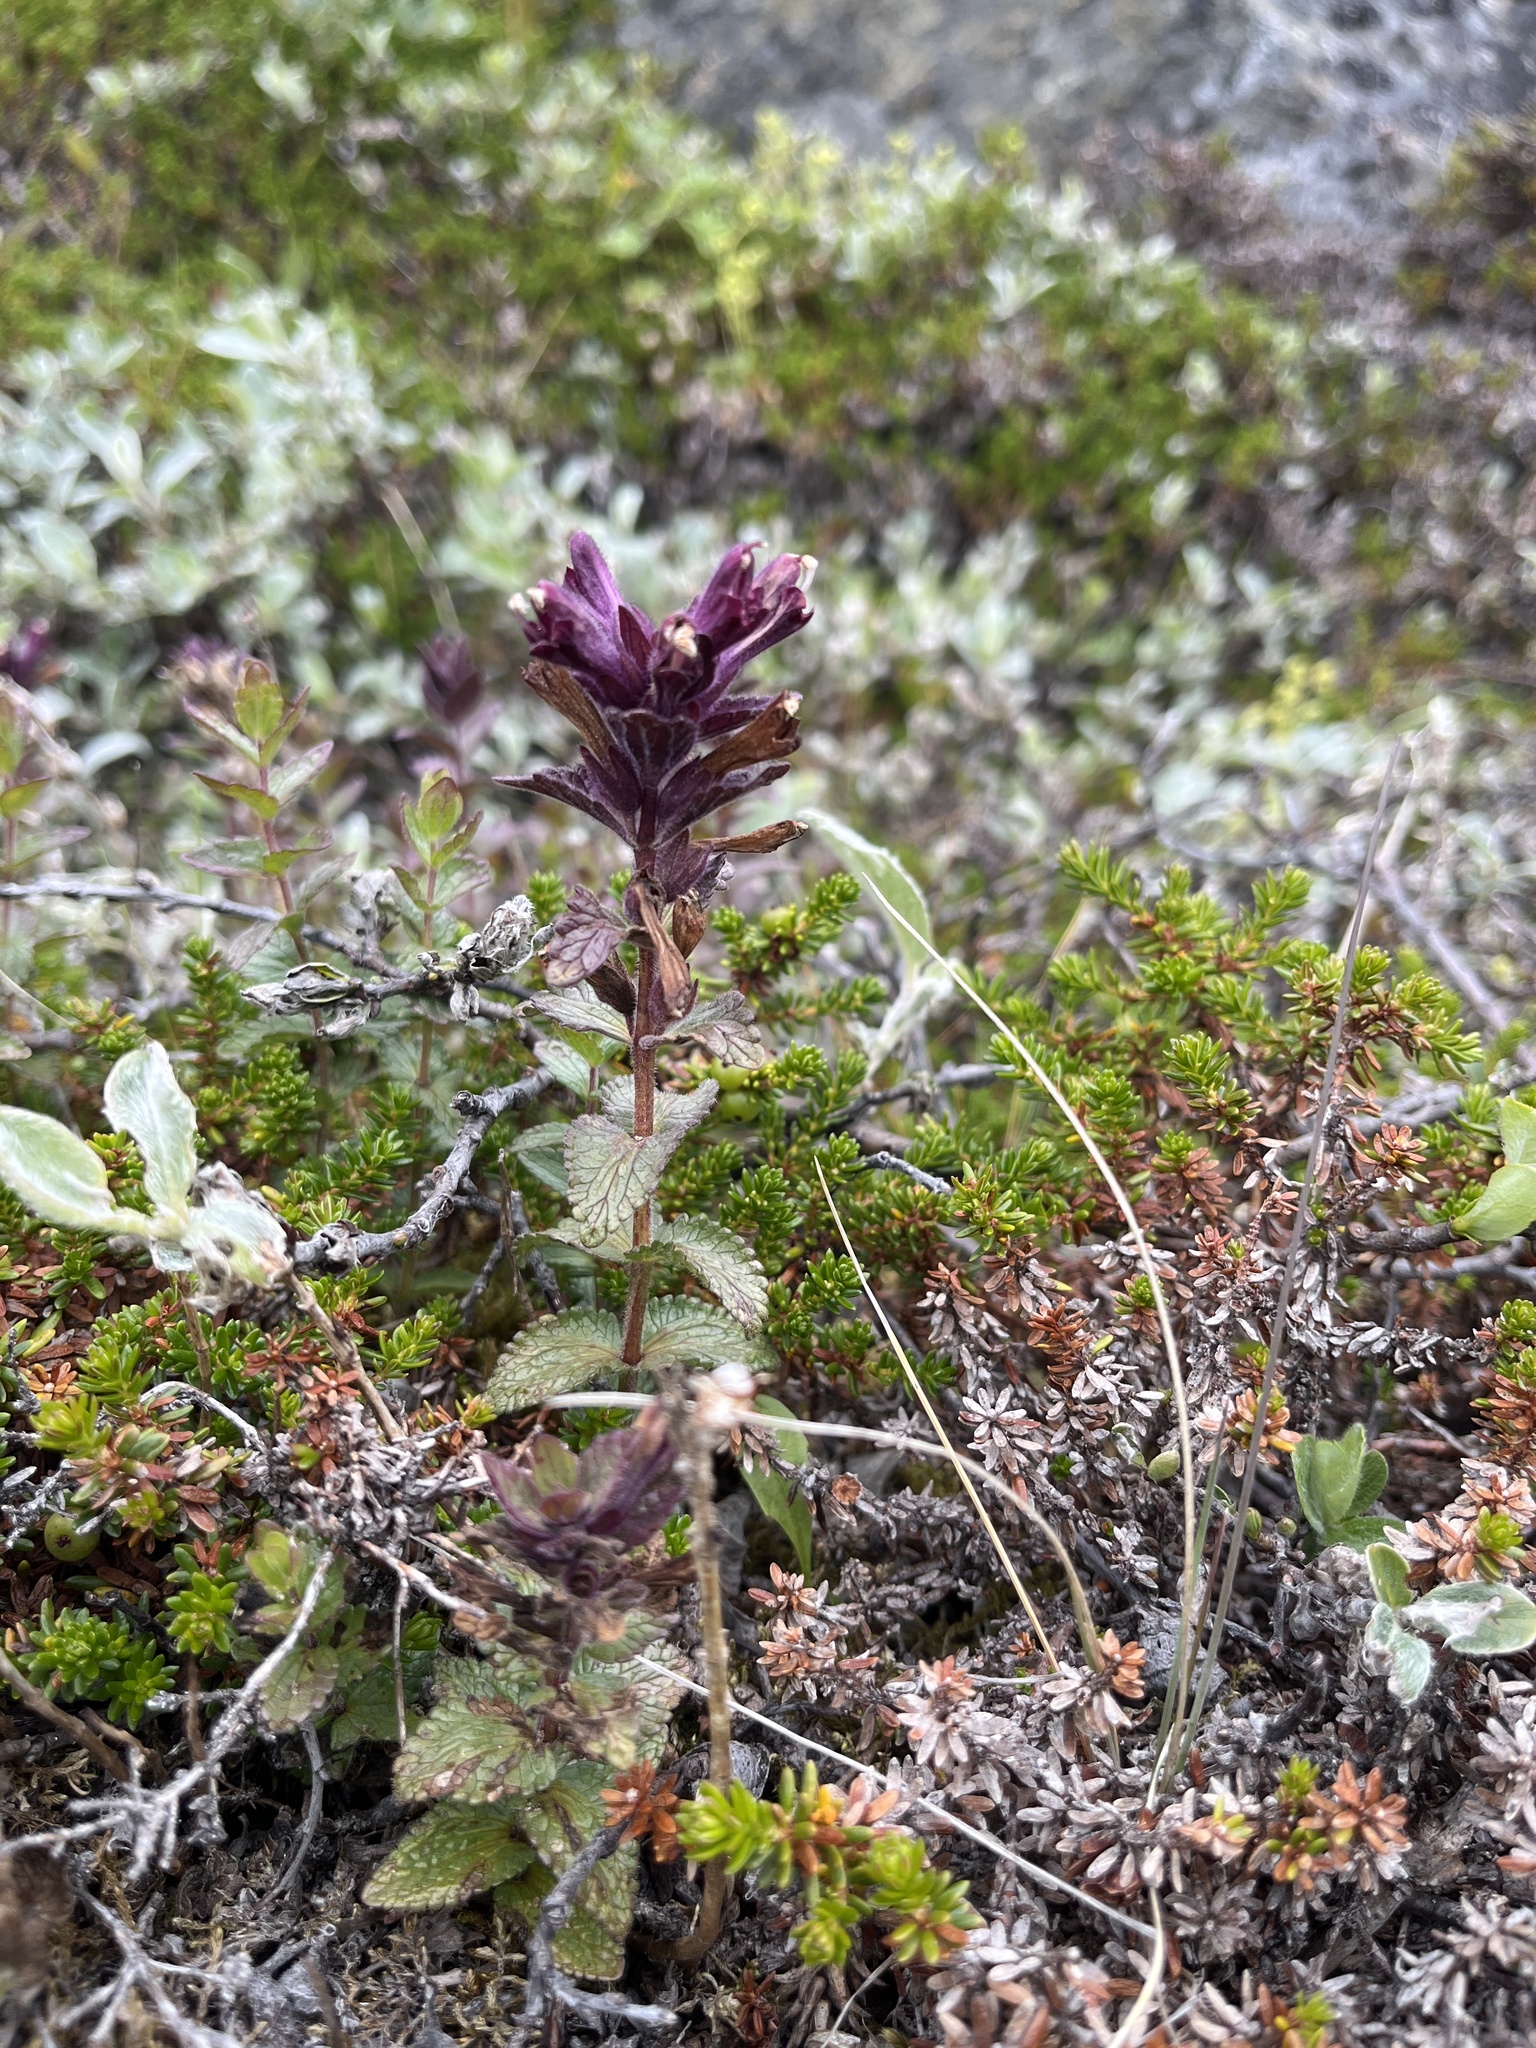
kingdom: Plantae
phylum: Tracheophyta
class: Magnoliopsida
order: Lamiales
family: Orobanchaceae
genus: Bartsia
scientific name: Bartsia alpina
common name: Alpine bartsia
